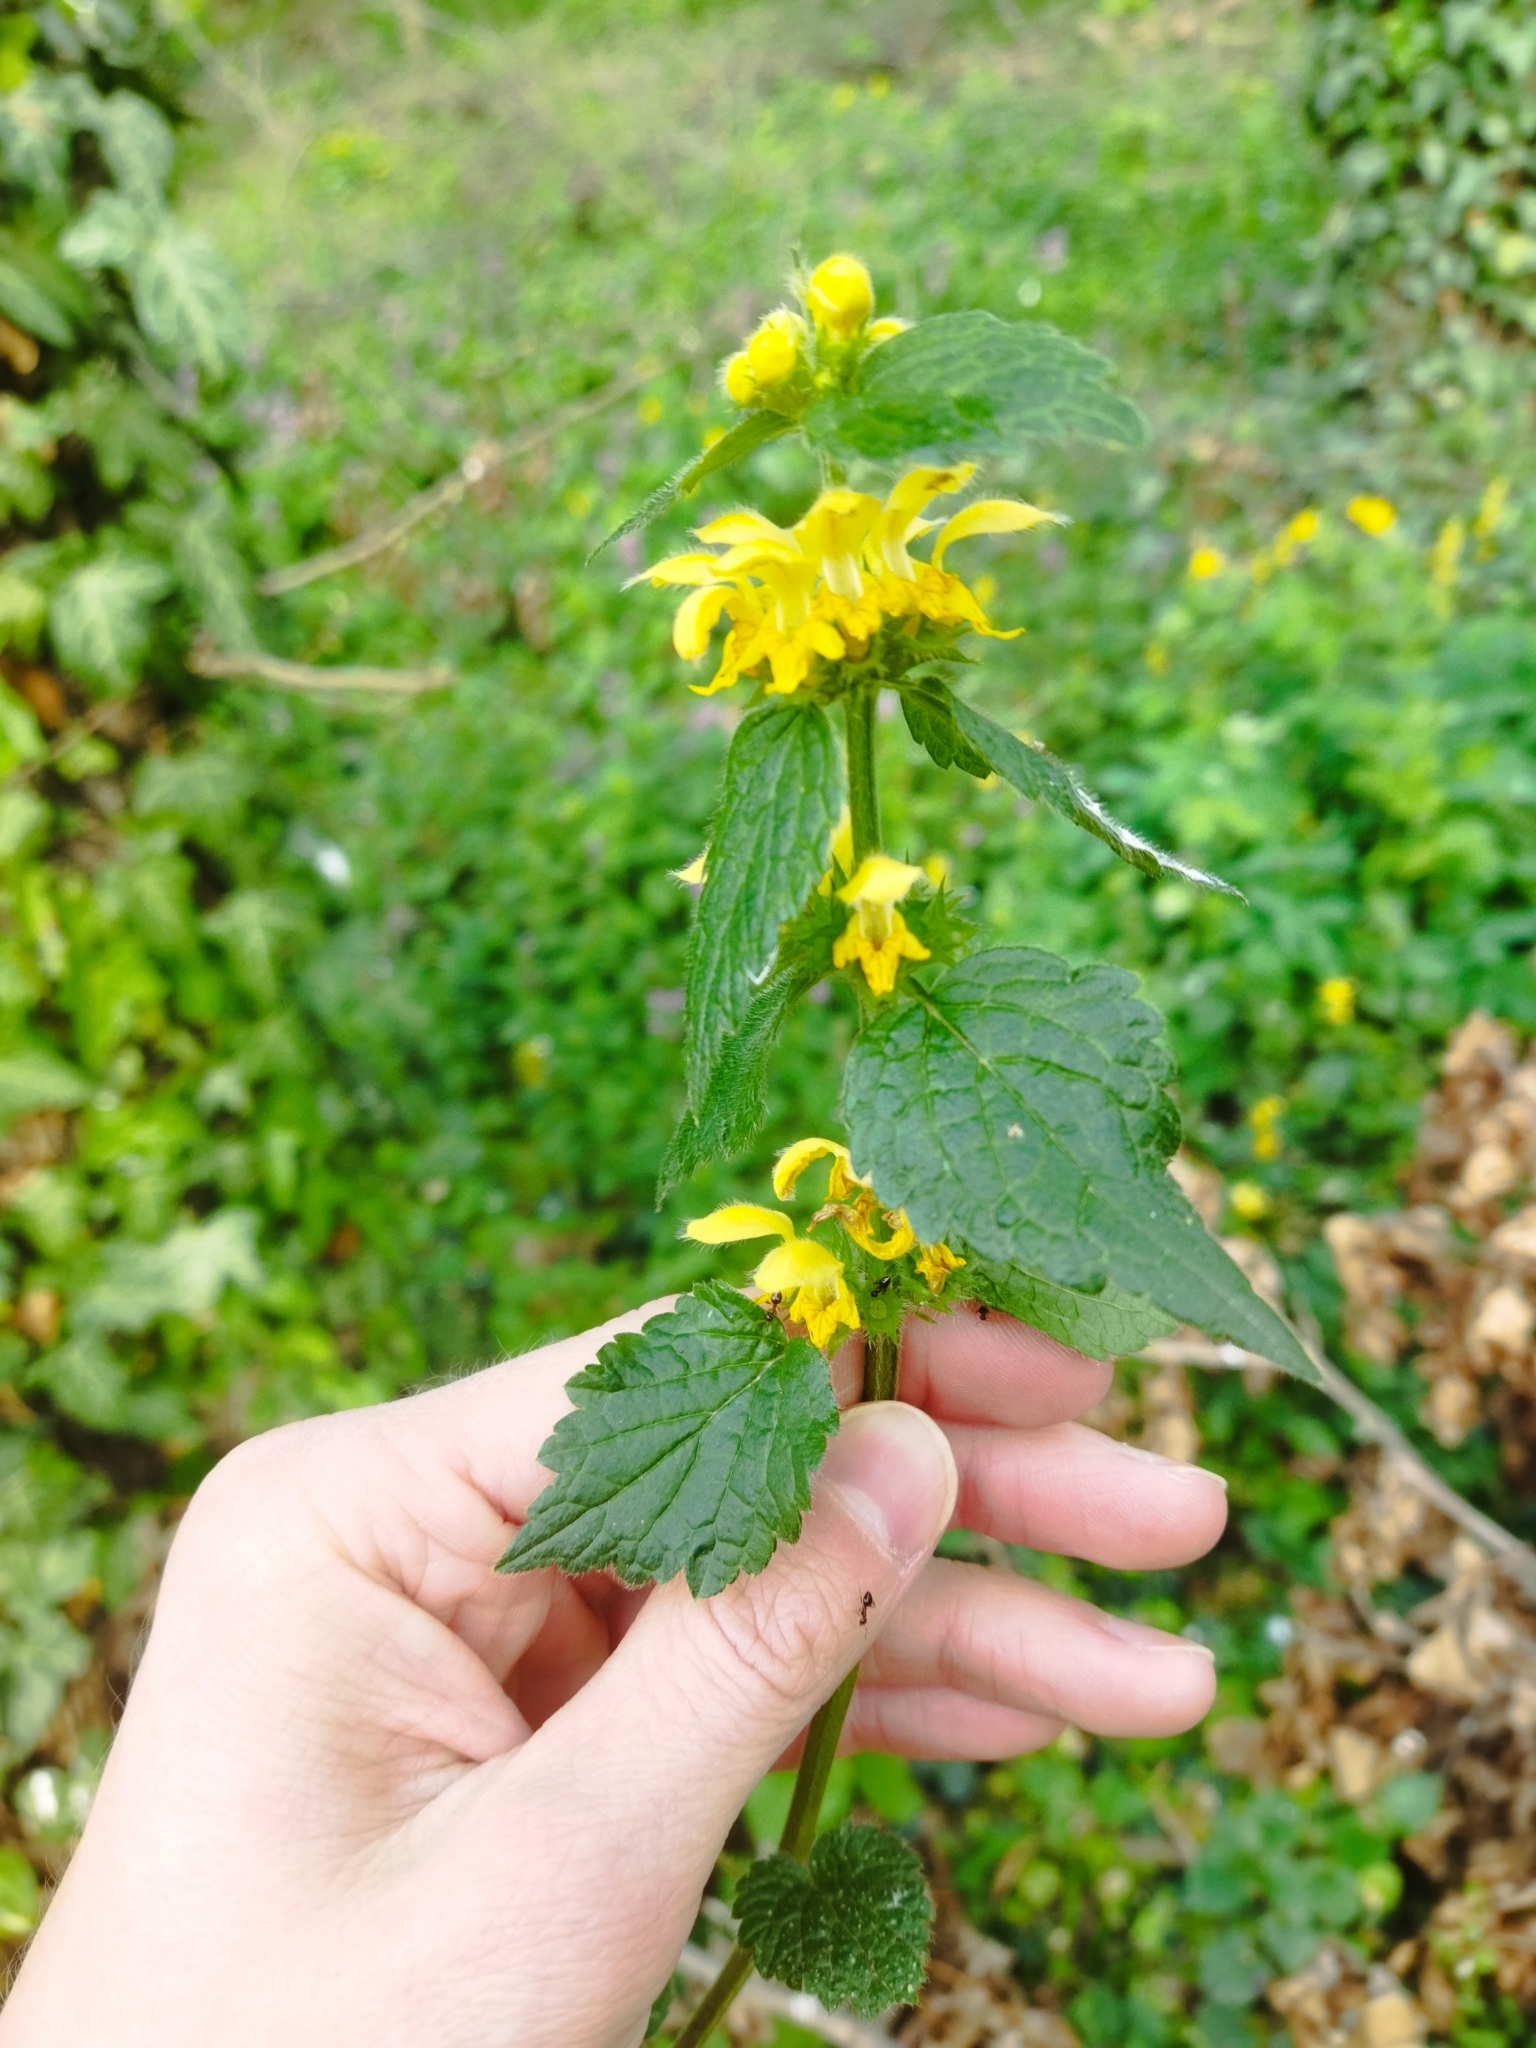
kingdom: Plantae
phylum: Tracheophyta
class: Magnoliopsida
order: Lamiales
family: Lamiaceae
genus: Lamium
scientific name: Lamium galeobdolon
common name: Yellow archangel
